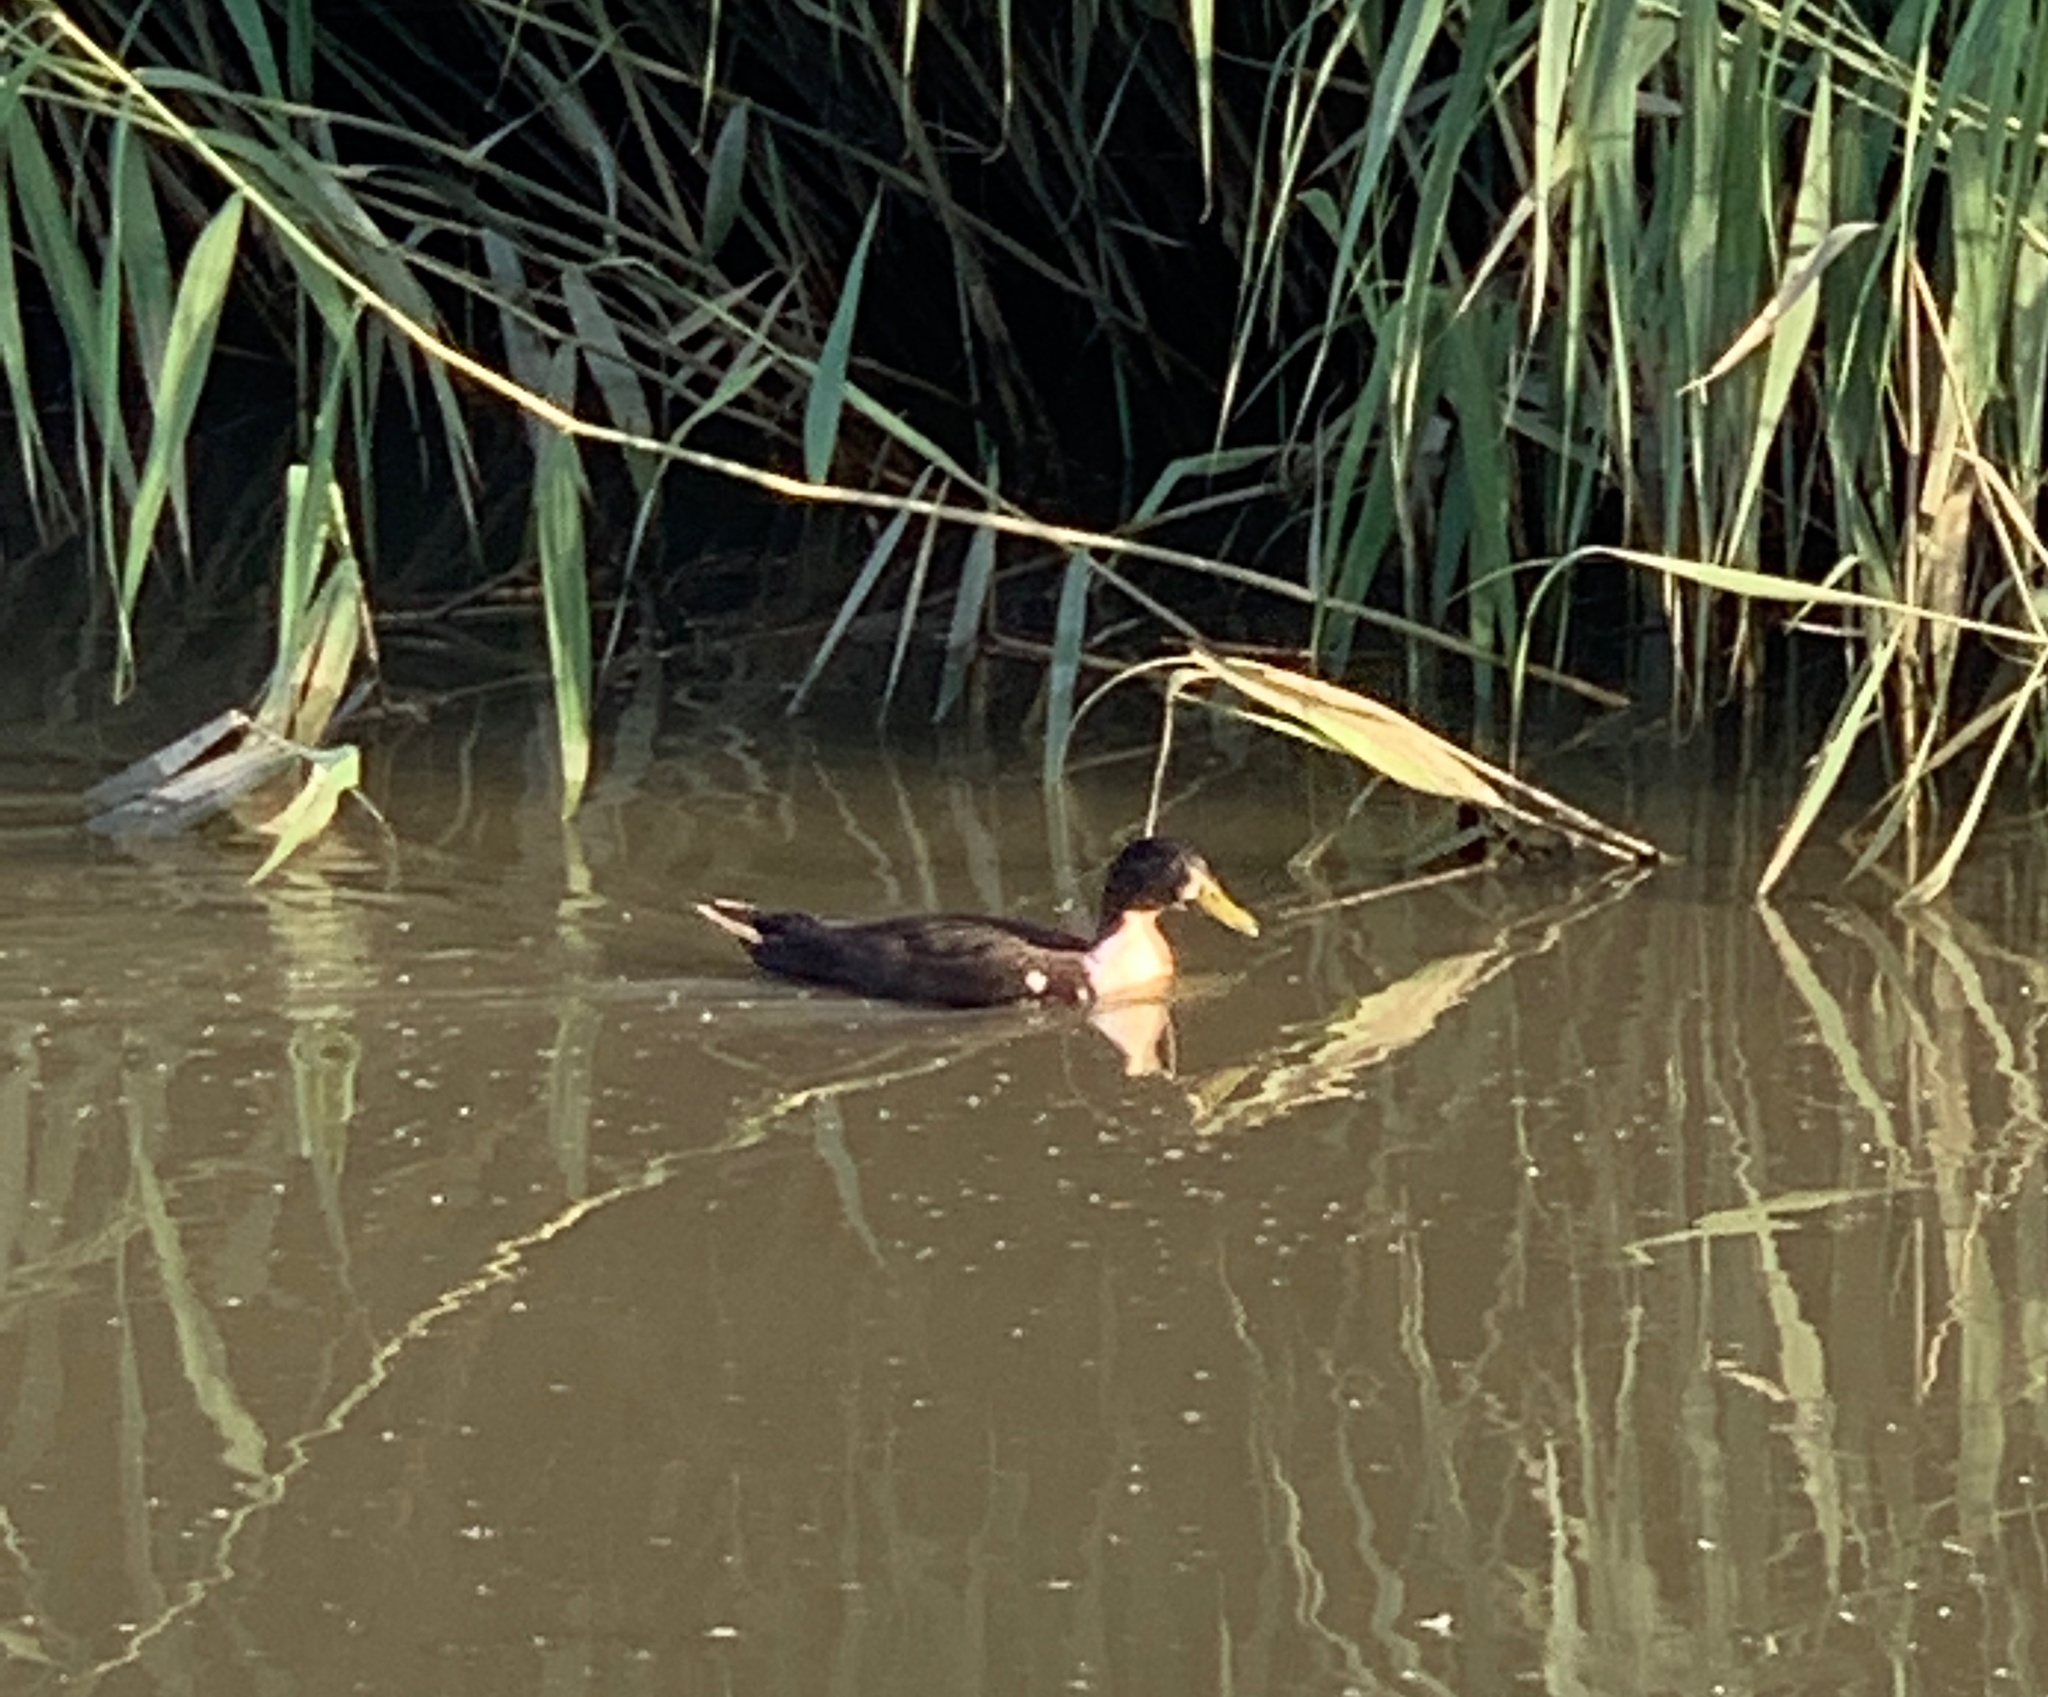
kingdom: Animalia
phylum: Chordata
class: Aves
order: Anseriformes
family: Anatidae
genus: Anas
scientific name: Anas platyrhynchos
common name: Mallard
